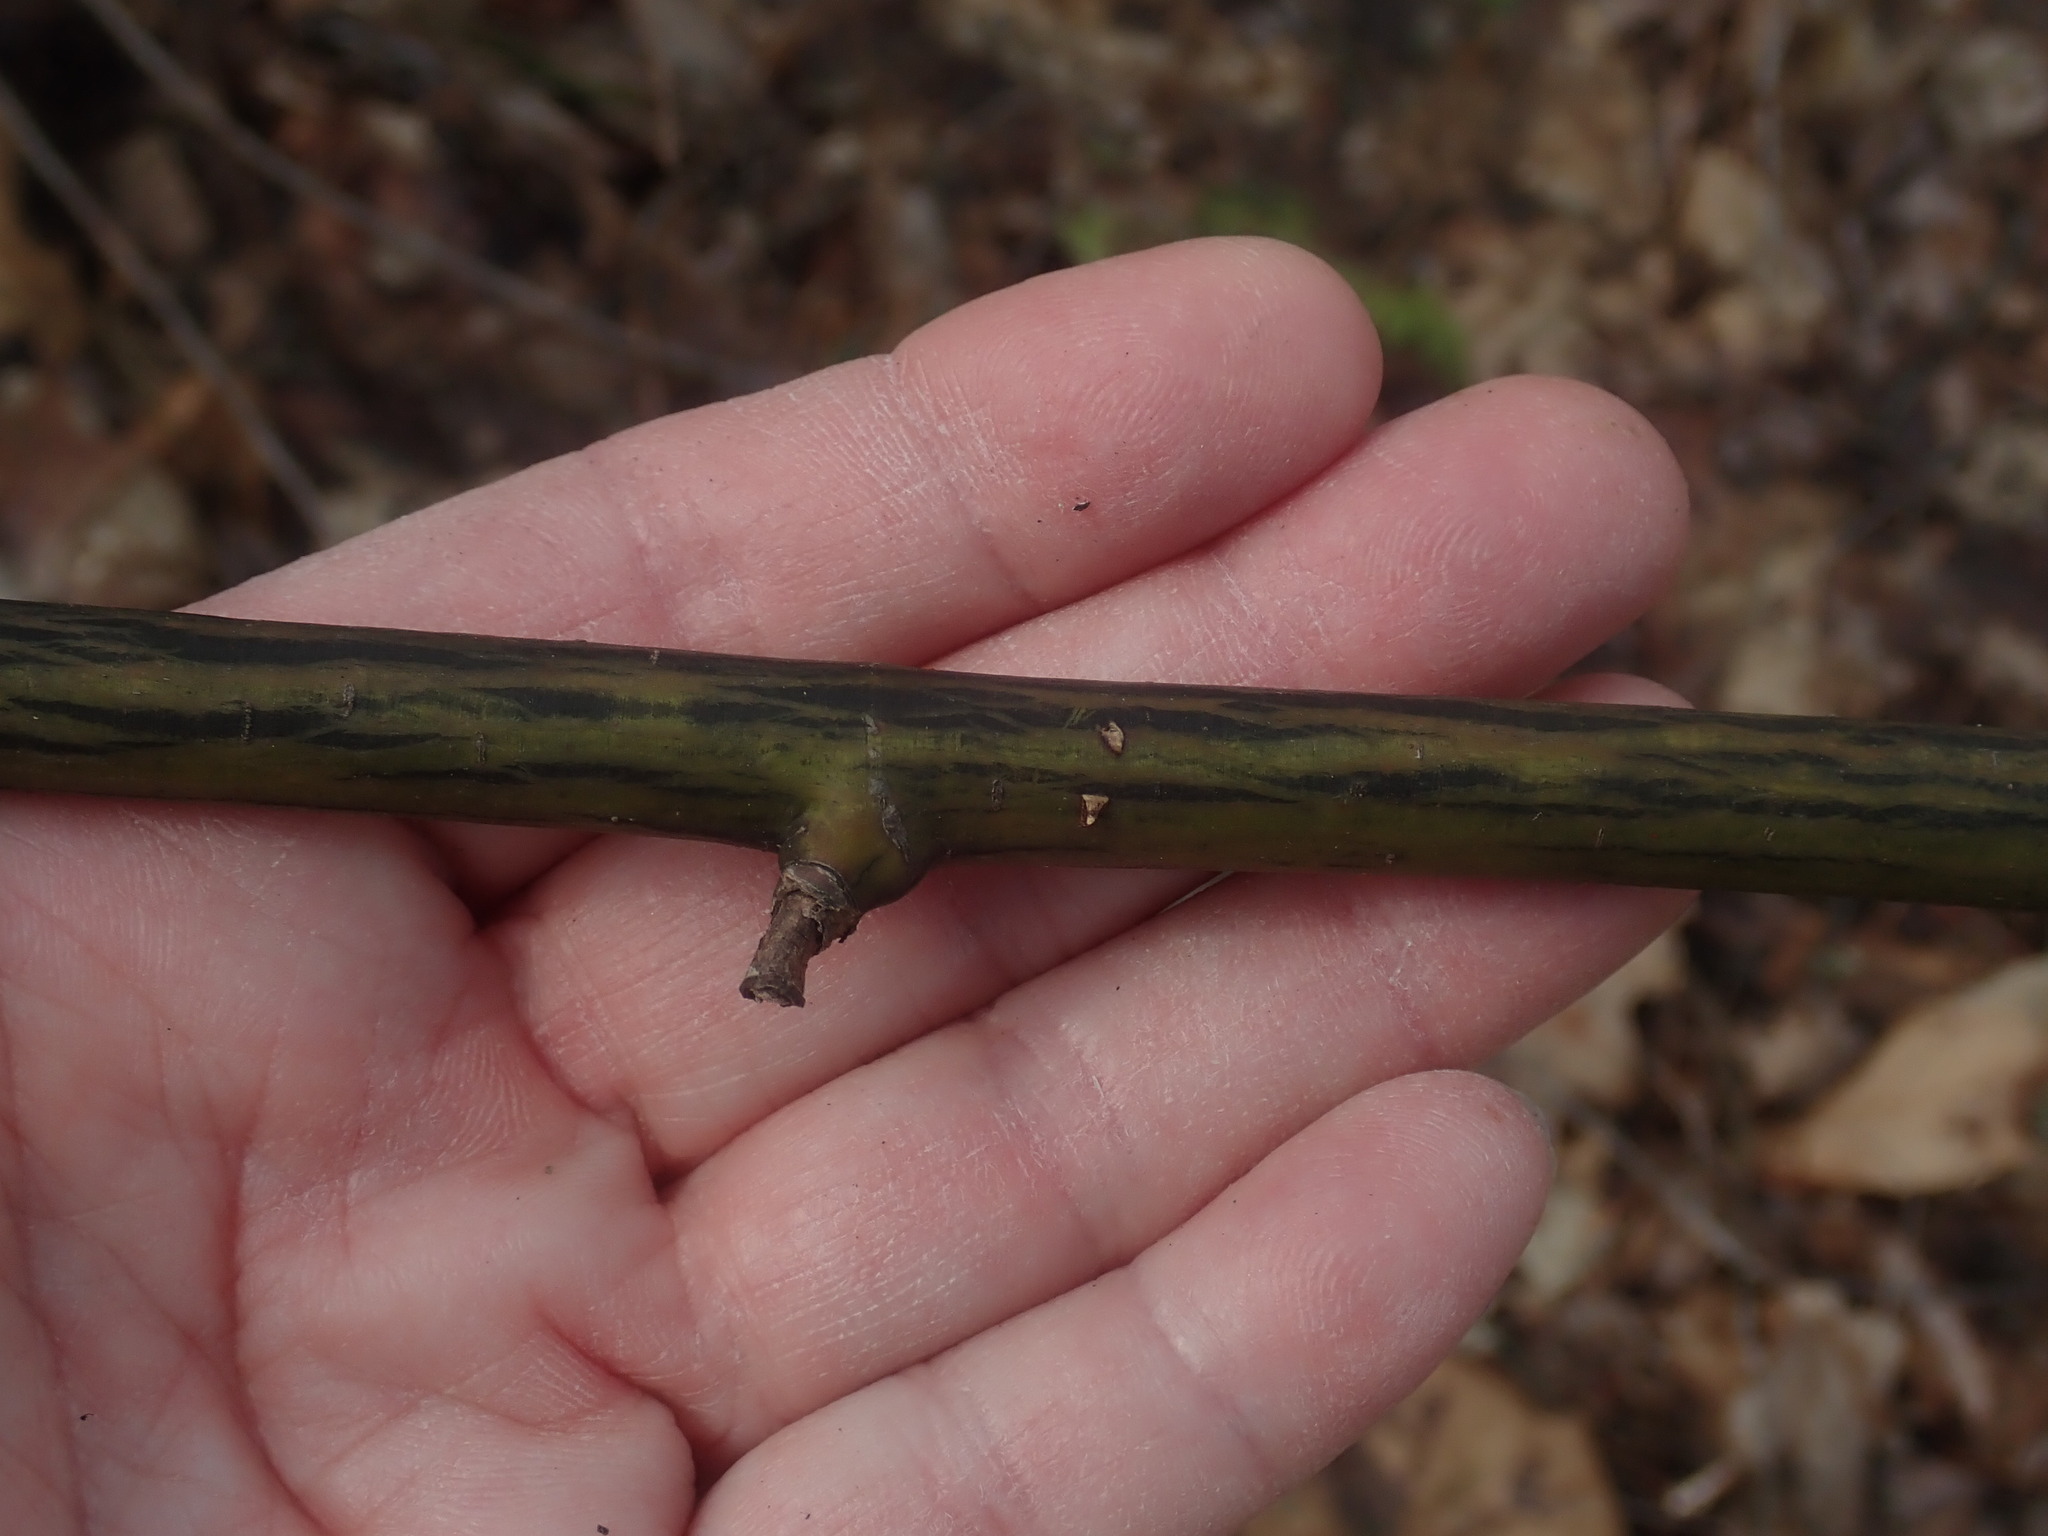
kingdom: Plantae
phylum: Tracheophyta
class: Magnoliopsida
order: Sapindales
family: Sapindaceae
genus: Acer
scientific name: Acer pensylvanicum
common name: Moosewood
